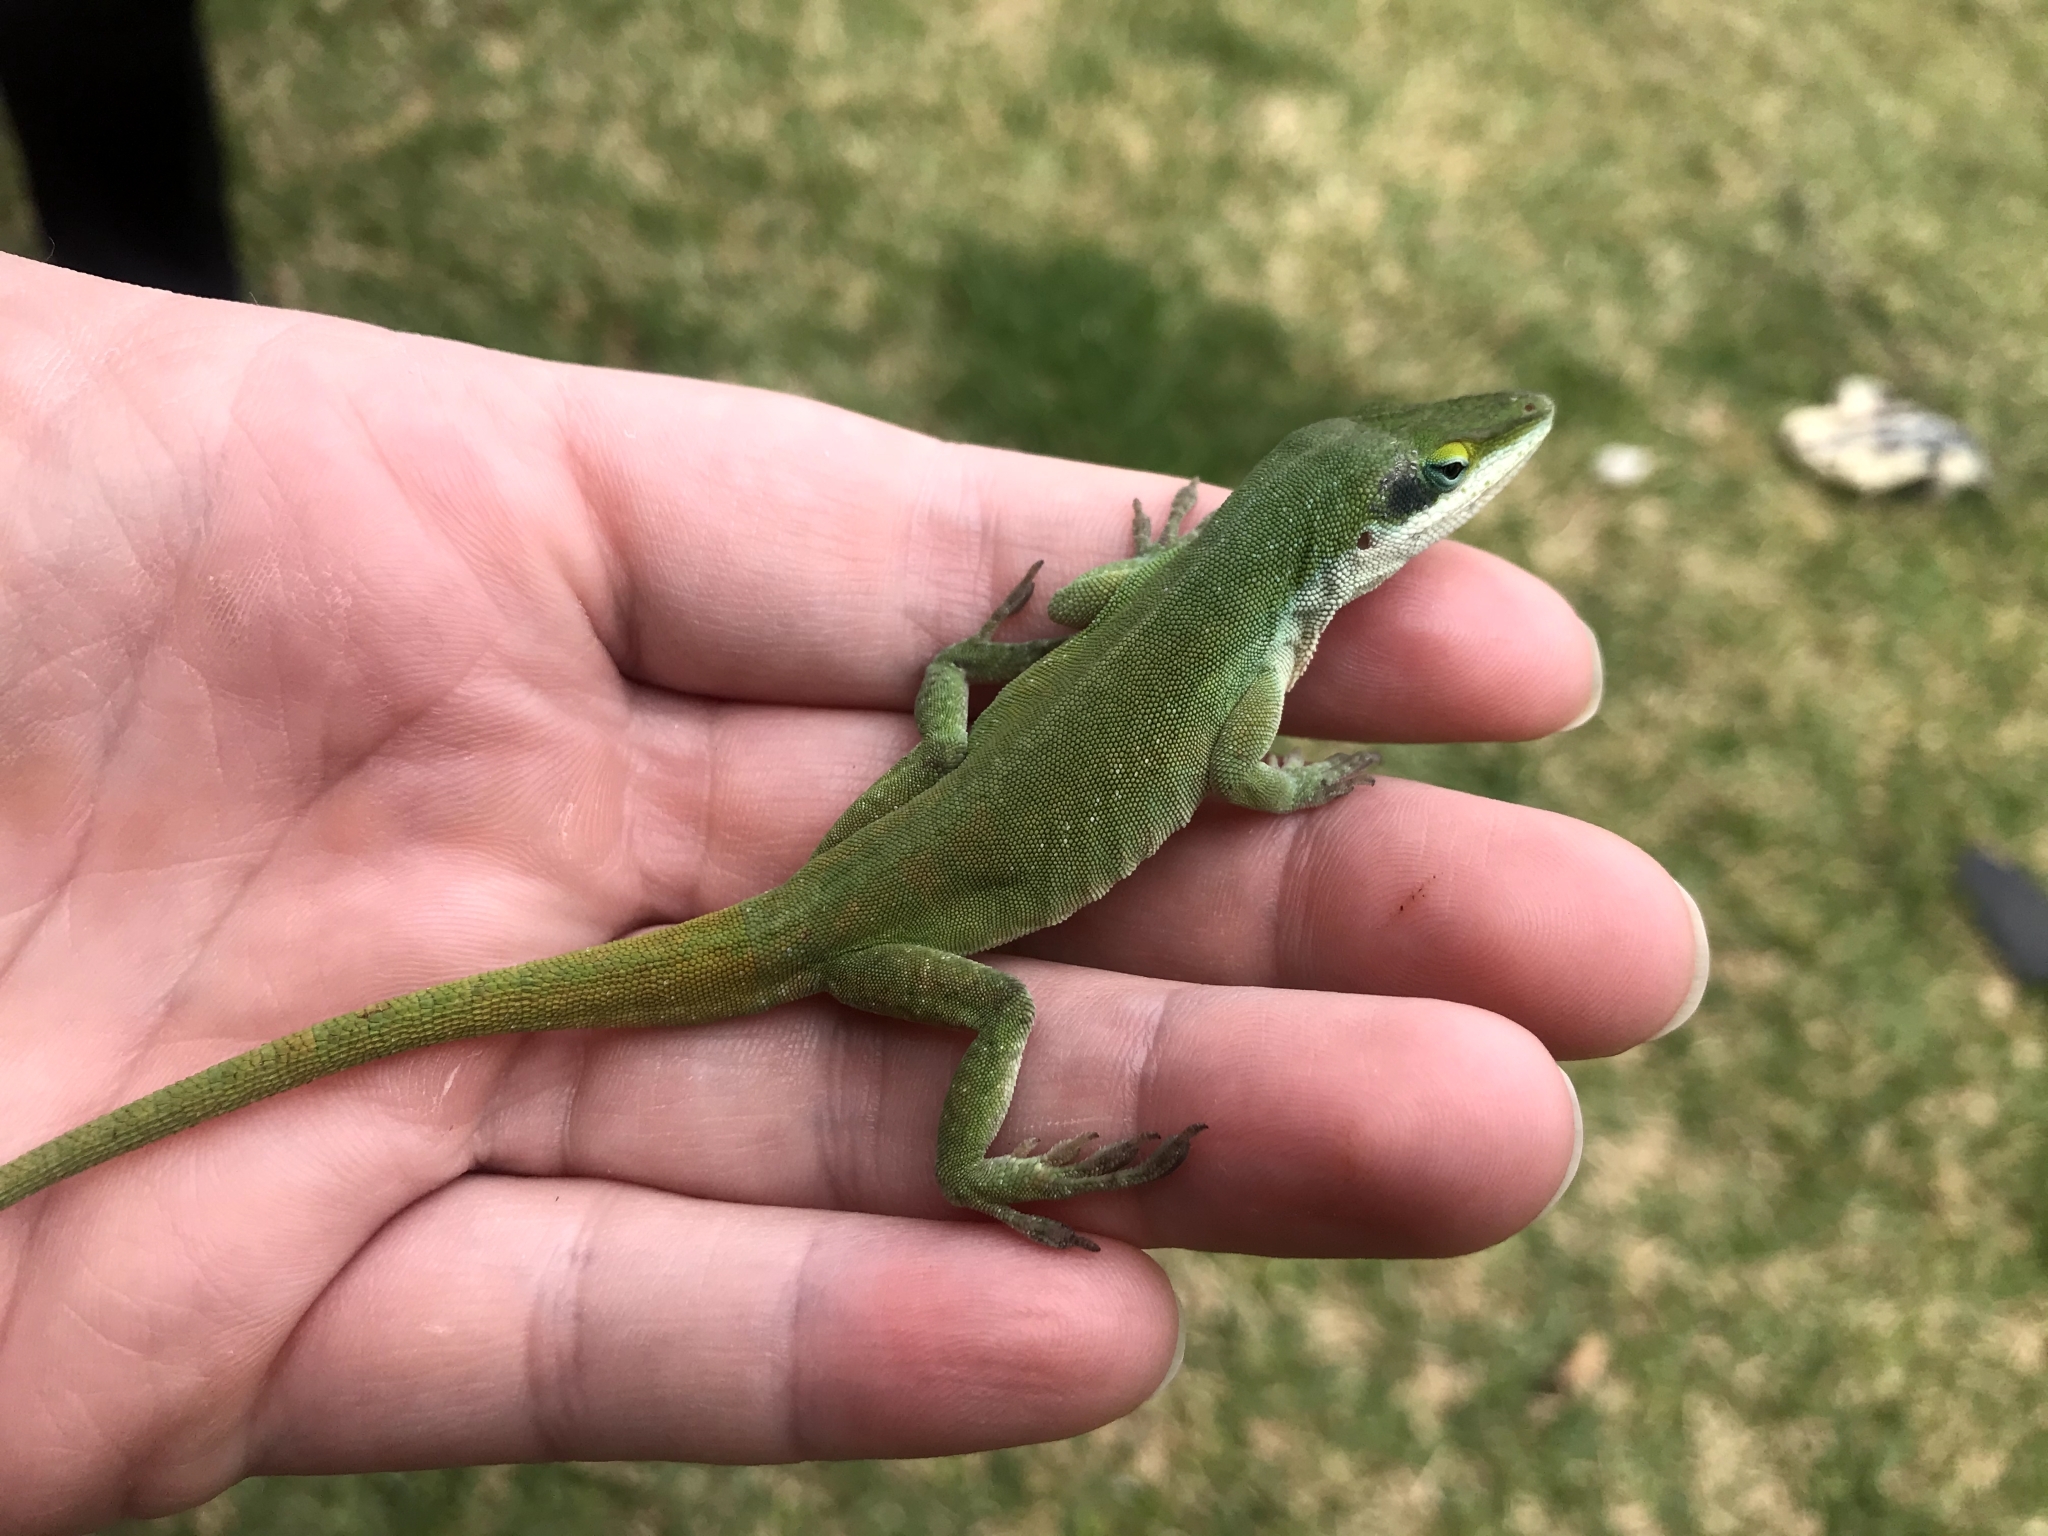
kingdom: Animalia
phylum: Chordata
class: Squamata
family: Dactyloidae
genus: Anolis
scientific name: Anolis carolinensis
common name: Green anole
